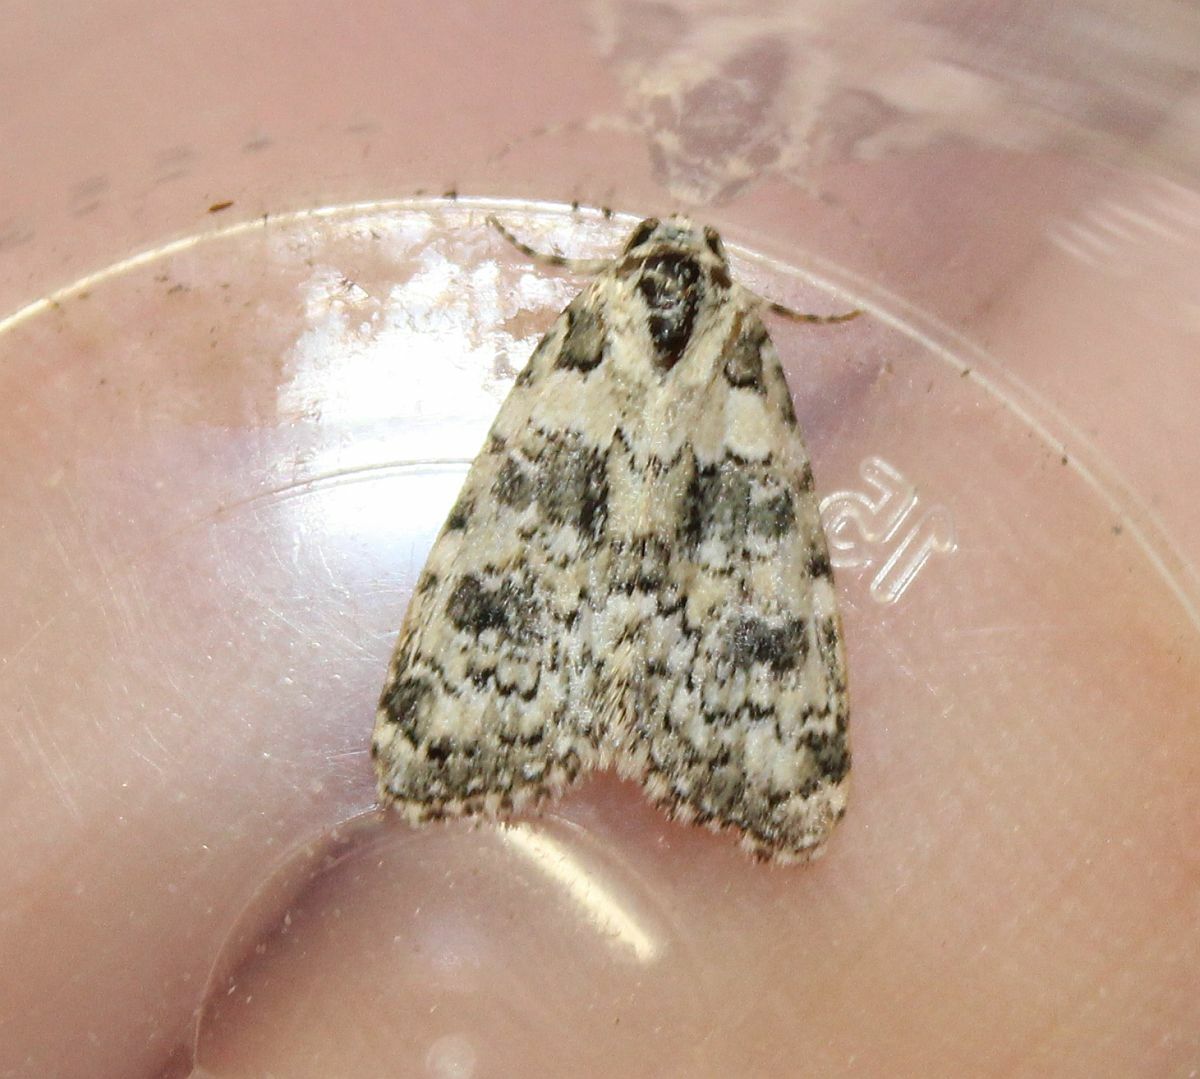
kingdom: Animalia
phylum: Arthropoda
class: Insecta
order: Lepidoptera
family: Noctuidae
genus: Bryophila
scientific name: Bryophila domestica
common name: Marbled beauty
